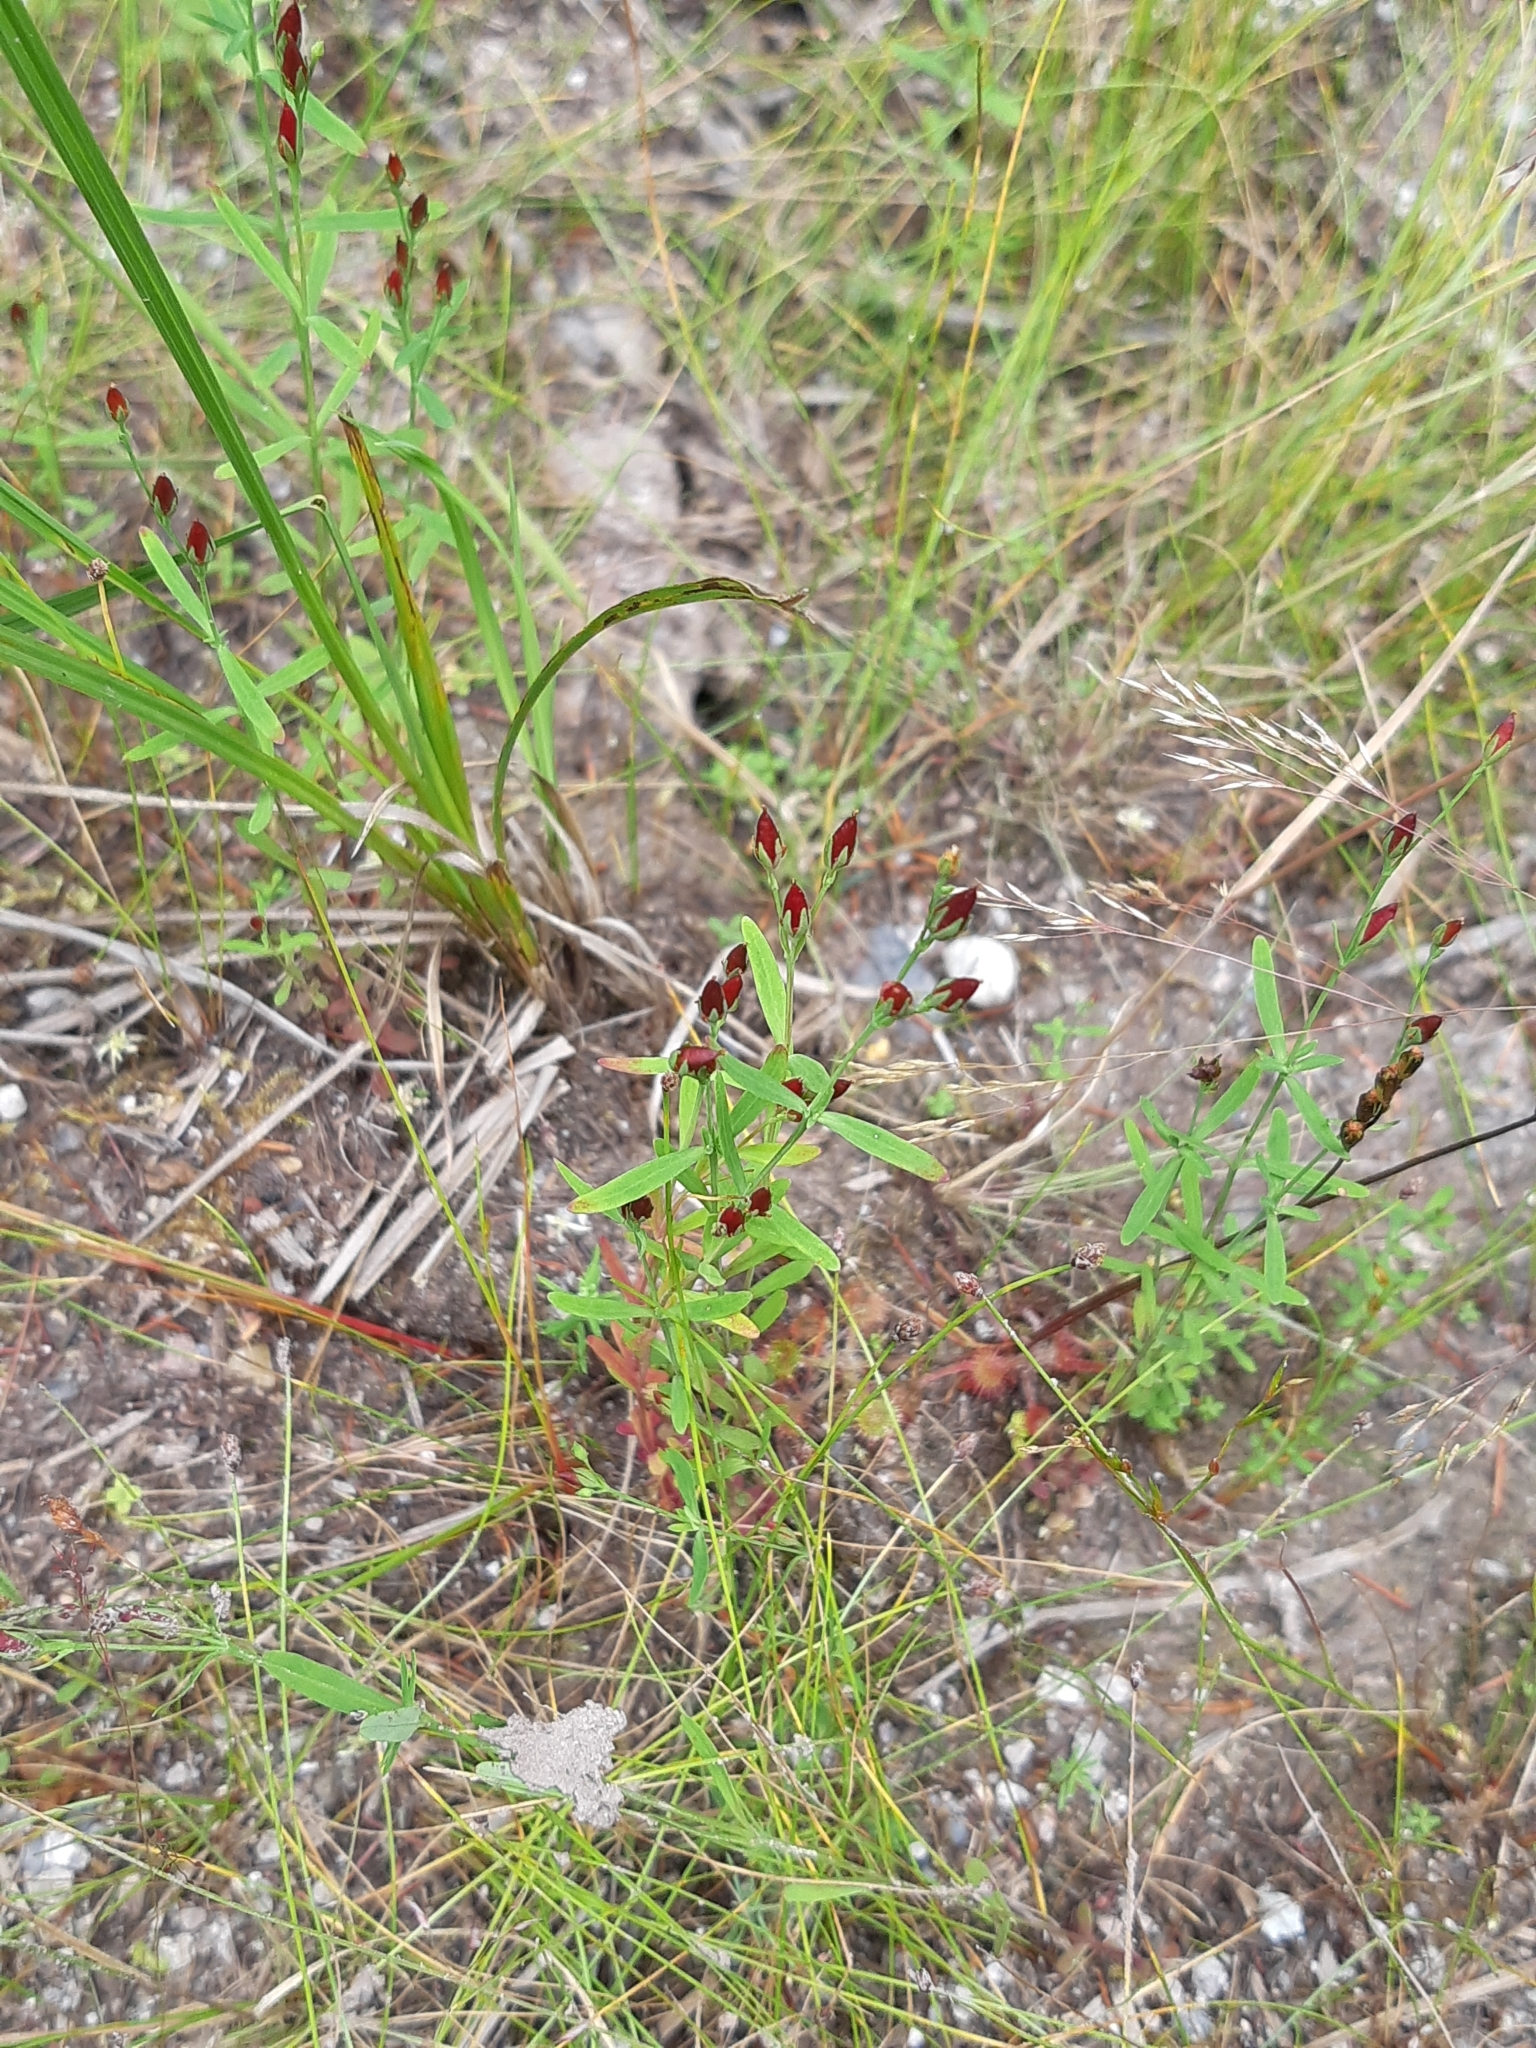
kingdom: Plantae
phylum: Tracheophyta
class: Magnoliopsida
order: Malpighiales
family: Hypericaceae
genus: Hypericum
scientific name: Hypericum canadense
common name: Irish st. john's-wort
